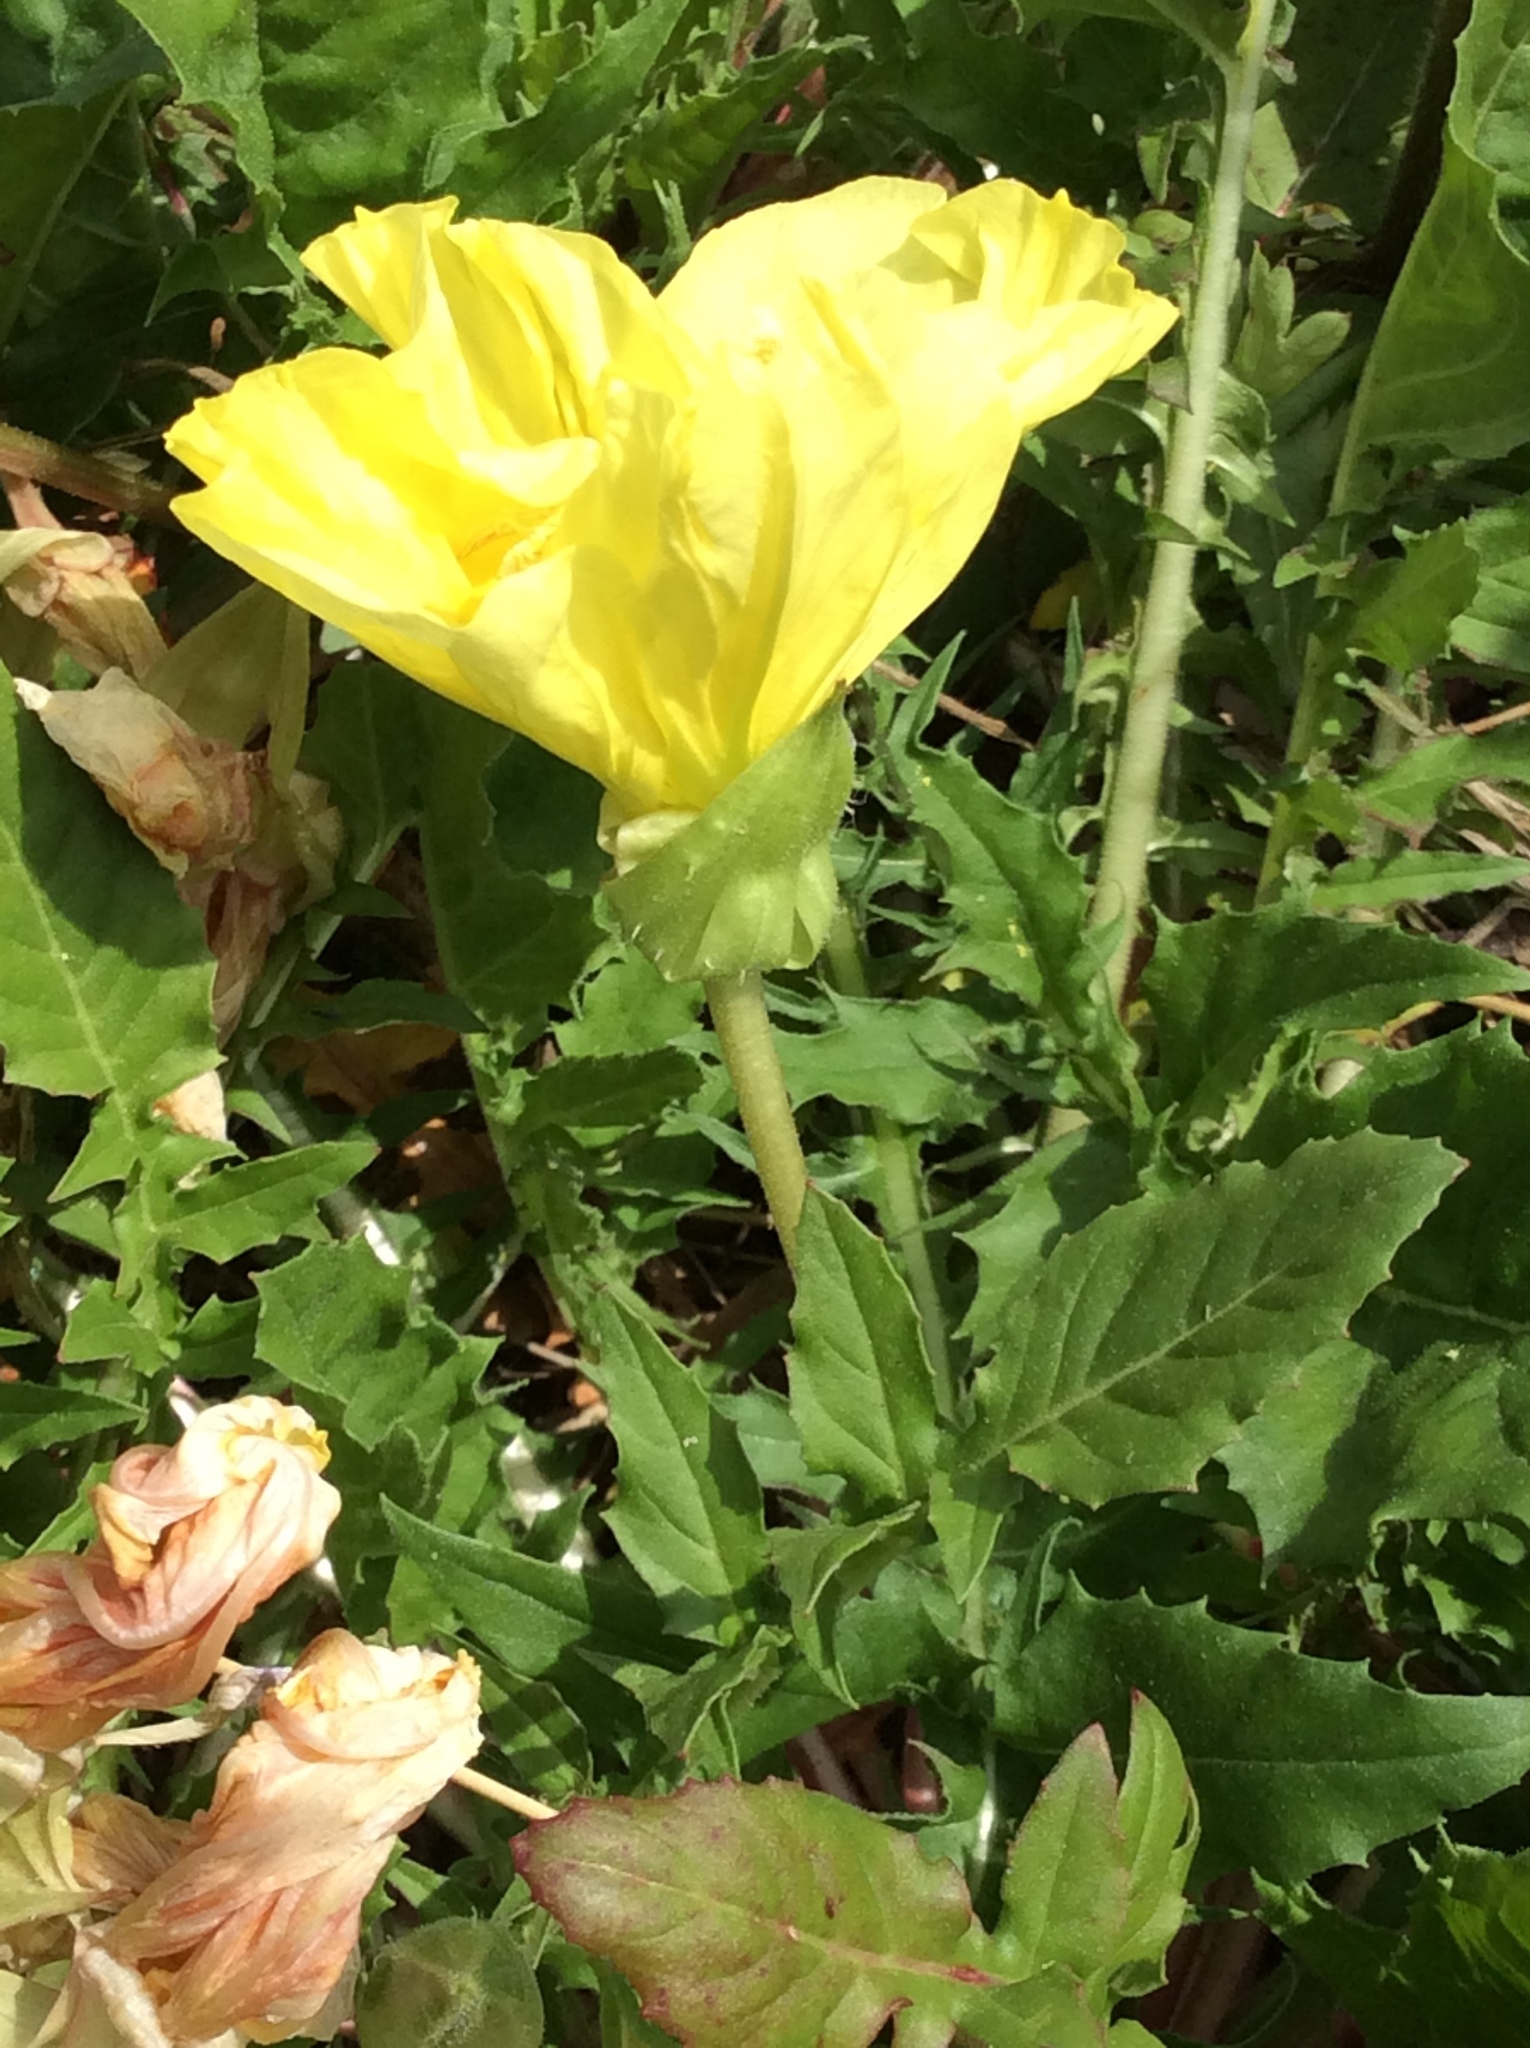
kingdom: Plantae
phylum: Tracheophyta
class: Magnoliopsida
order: Myrtales
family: Onagraceae
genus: Oenothera
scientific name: Oenothera triloba
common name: Sessile evening-primrose
